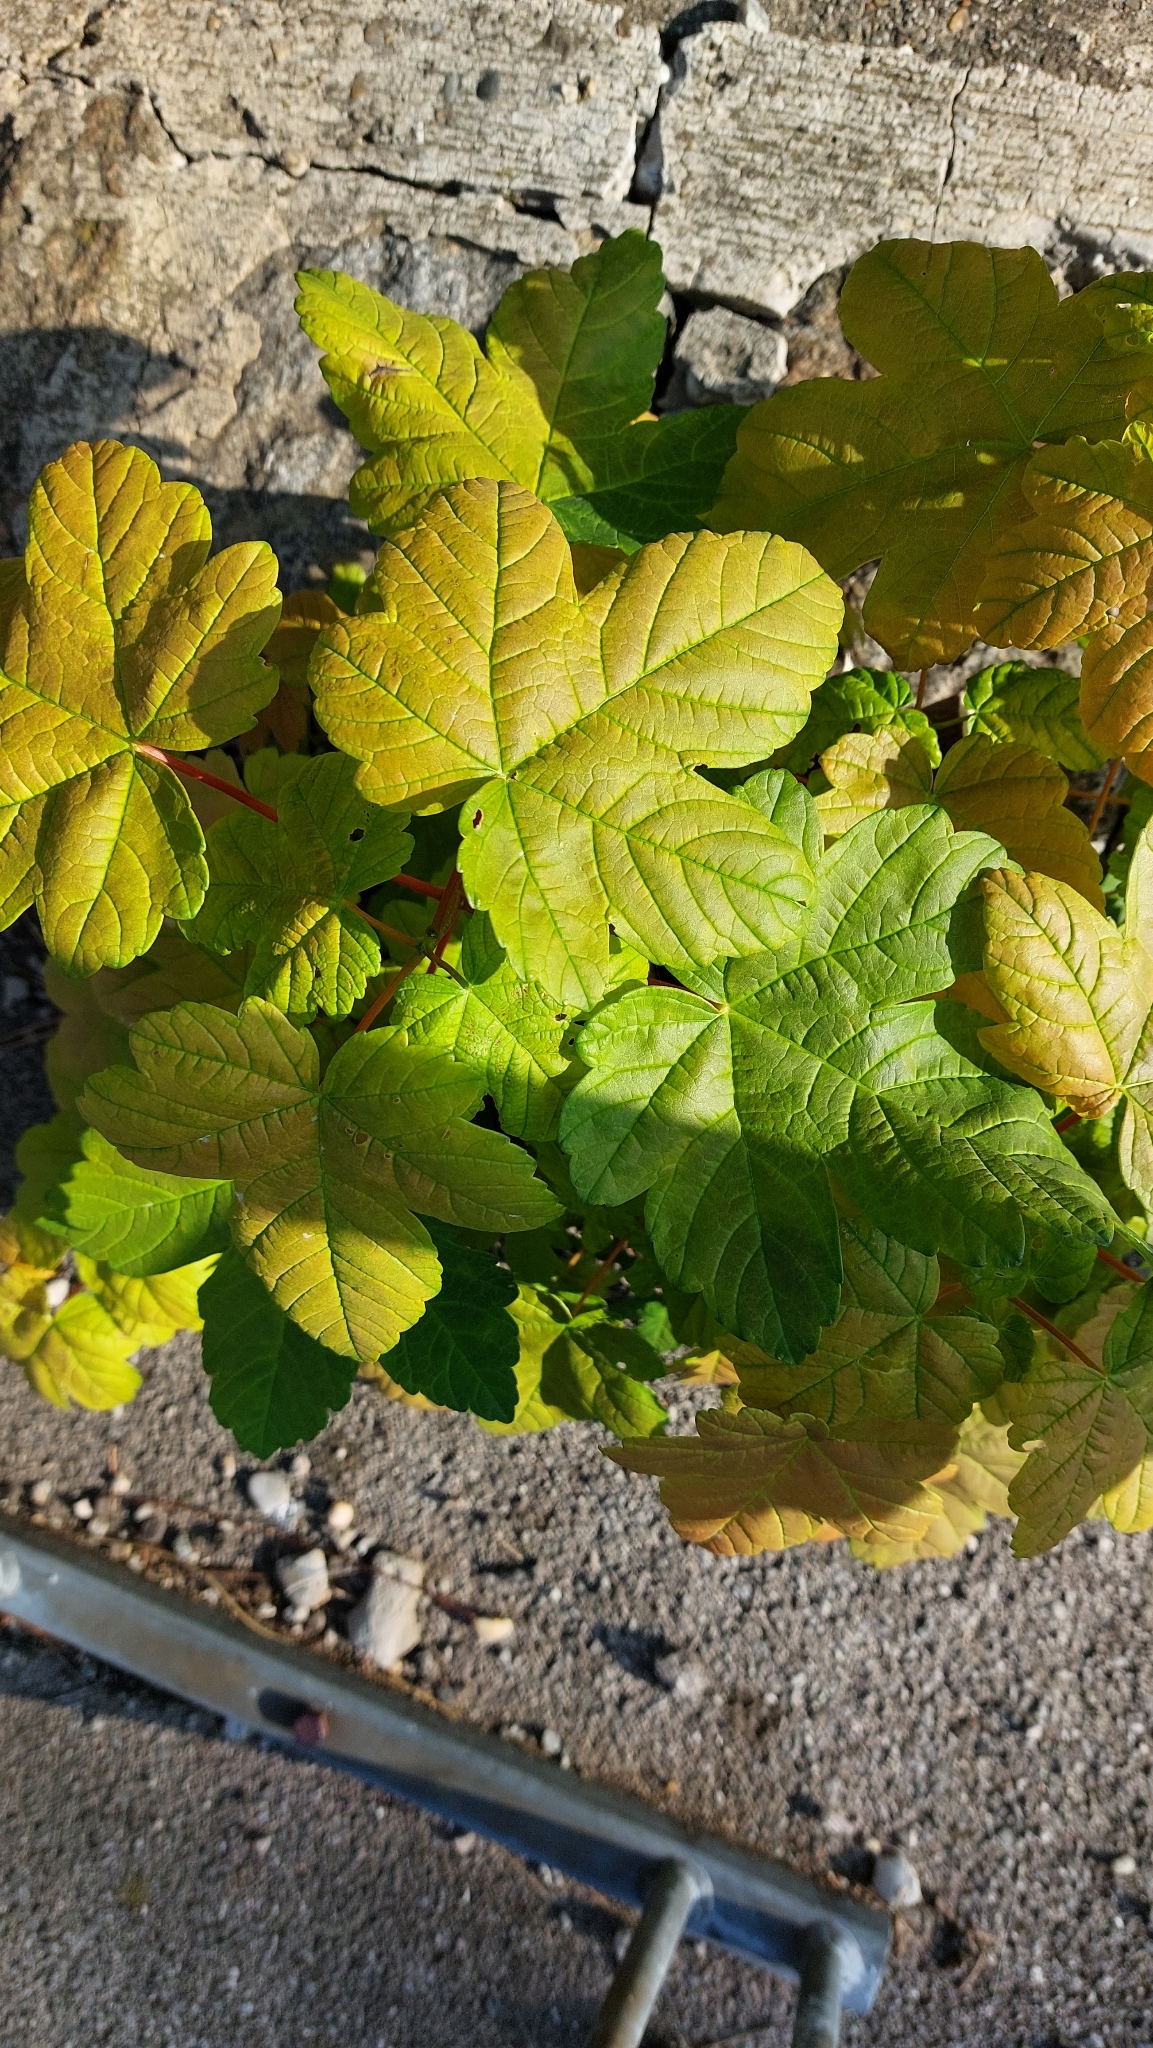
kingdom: Plantae
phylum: Tracheophyta
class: Magnoliopsida
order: Sapindales
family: Sapindaceae
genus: Acer
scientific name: Acer pseudoplatanus
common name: Sycamore
